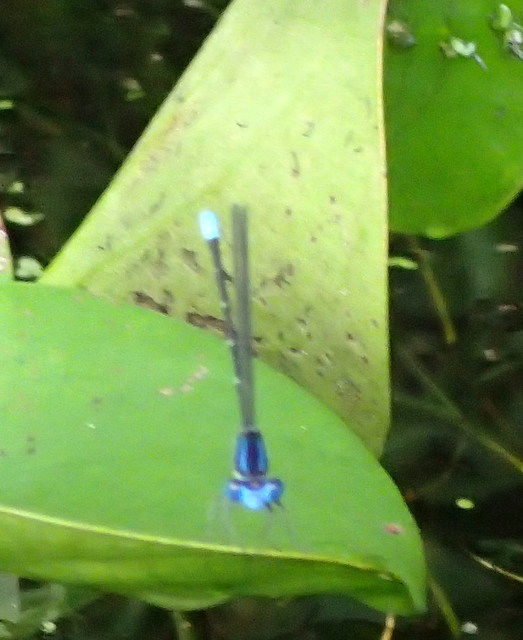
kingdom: Animalia
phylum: Arthropoda
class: Insecta
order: Odonata
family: Coenagrionidae
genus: Argia
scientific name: Argia sedula
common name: Blue-ringed dancer
